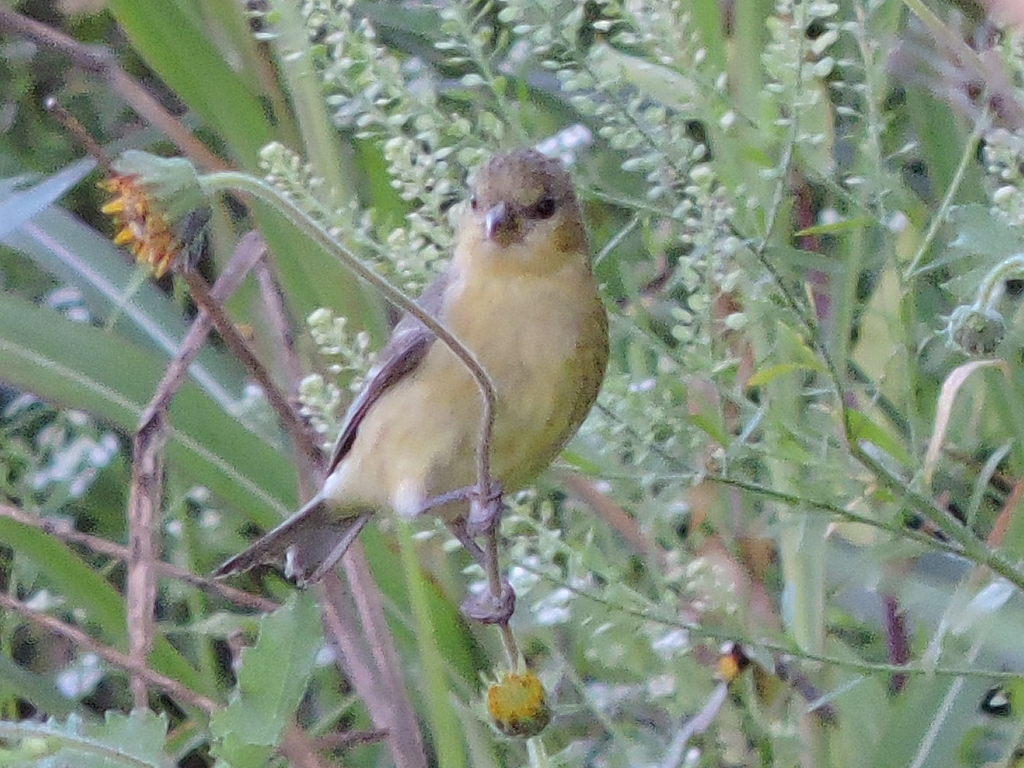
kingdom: Animalia
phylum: Chordata
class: Aves
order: Passeriformes
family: Fringillidae
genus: Spinus
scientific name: Spinus psaltria
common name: Lesser goldfinch
